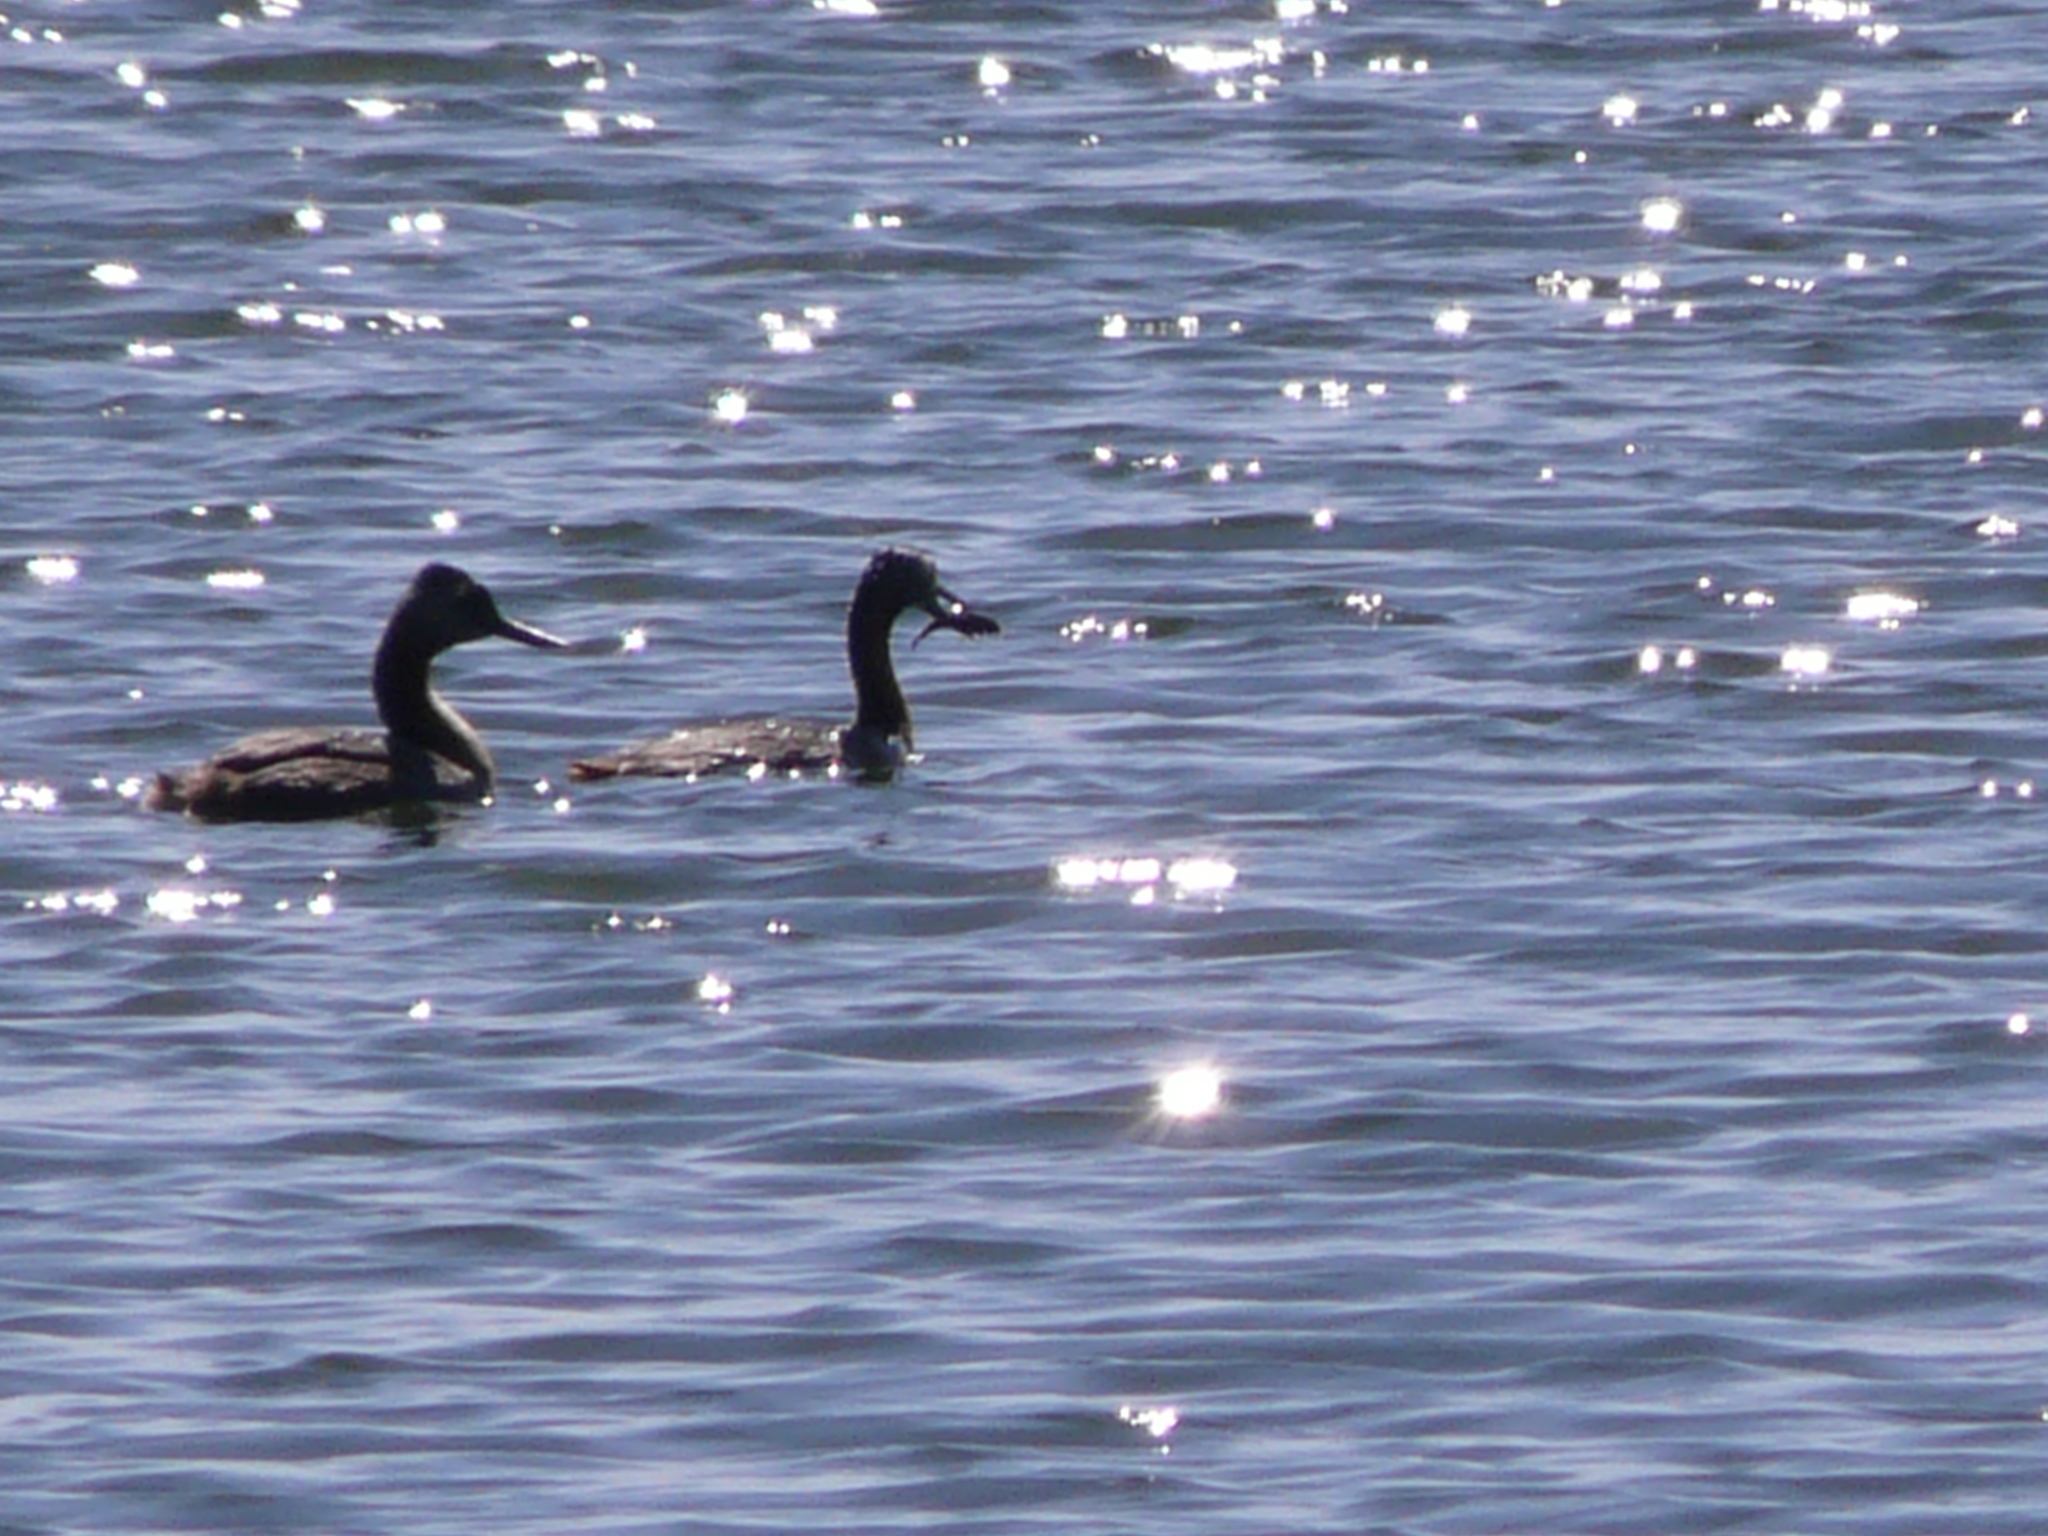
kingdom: Animalia
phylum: Chordata
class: Aves
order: Podicipediformes
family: Podicipedidae
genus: Podiceps
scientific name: Podiceps major
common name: Great grebe
